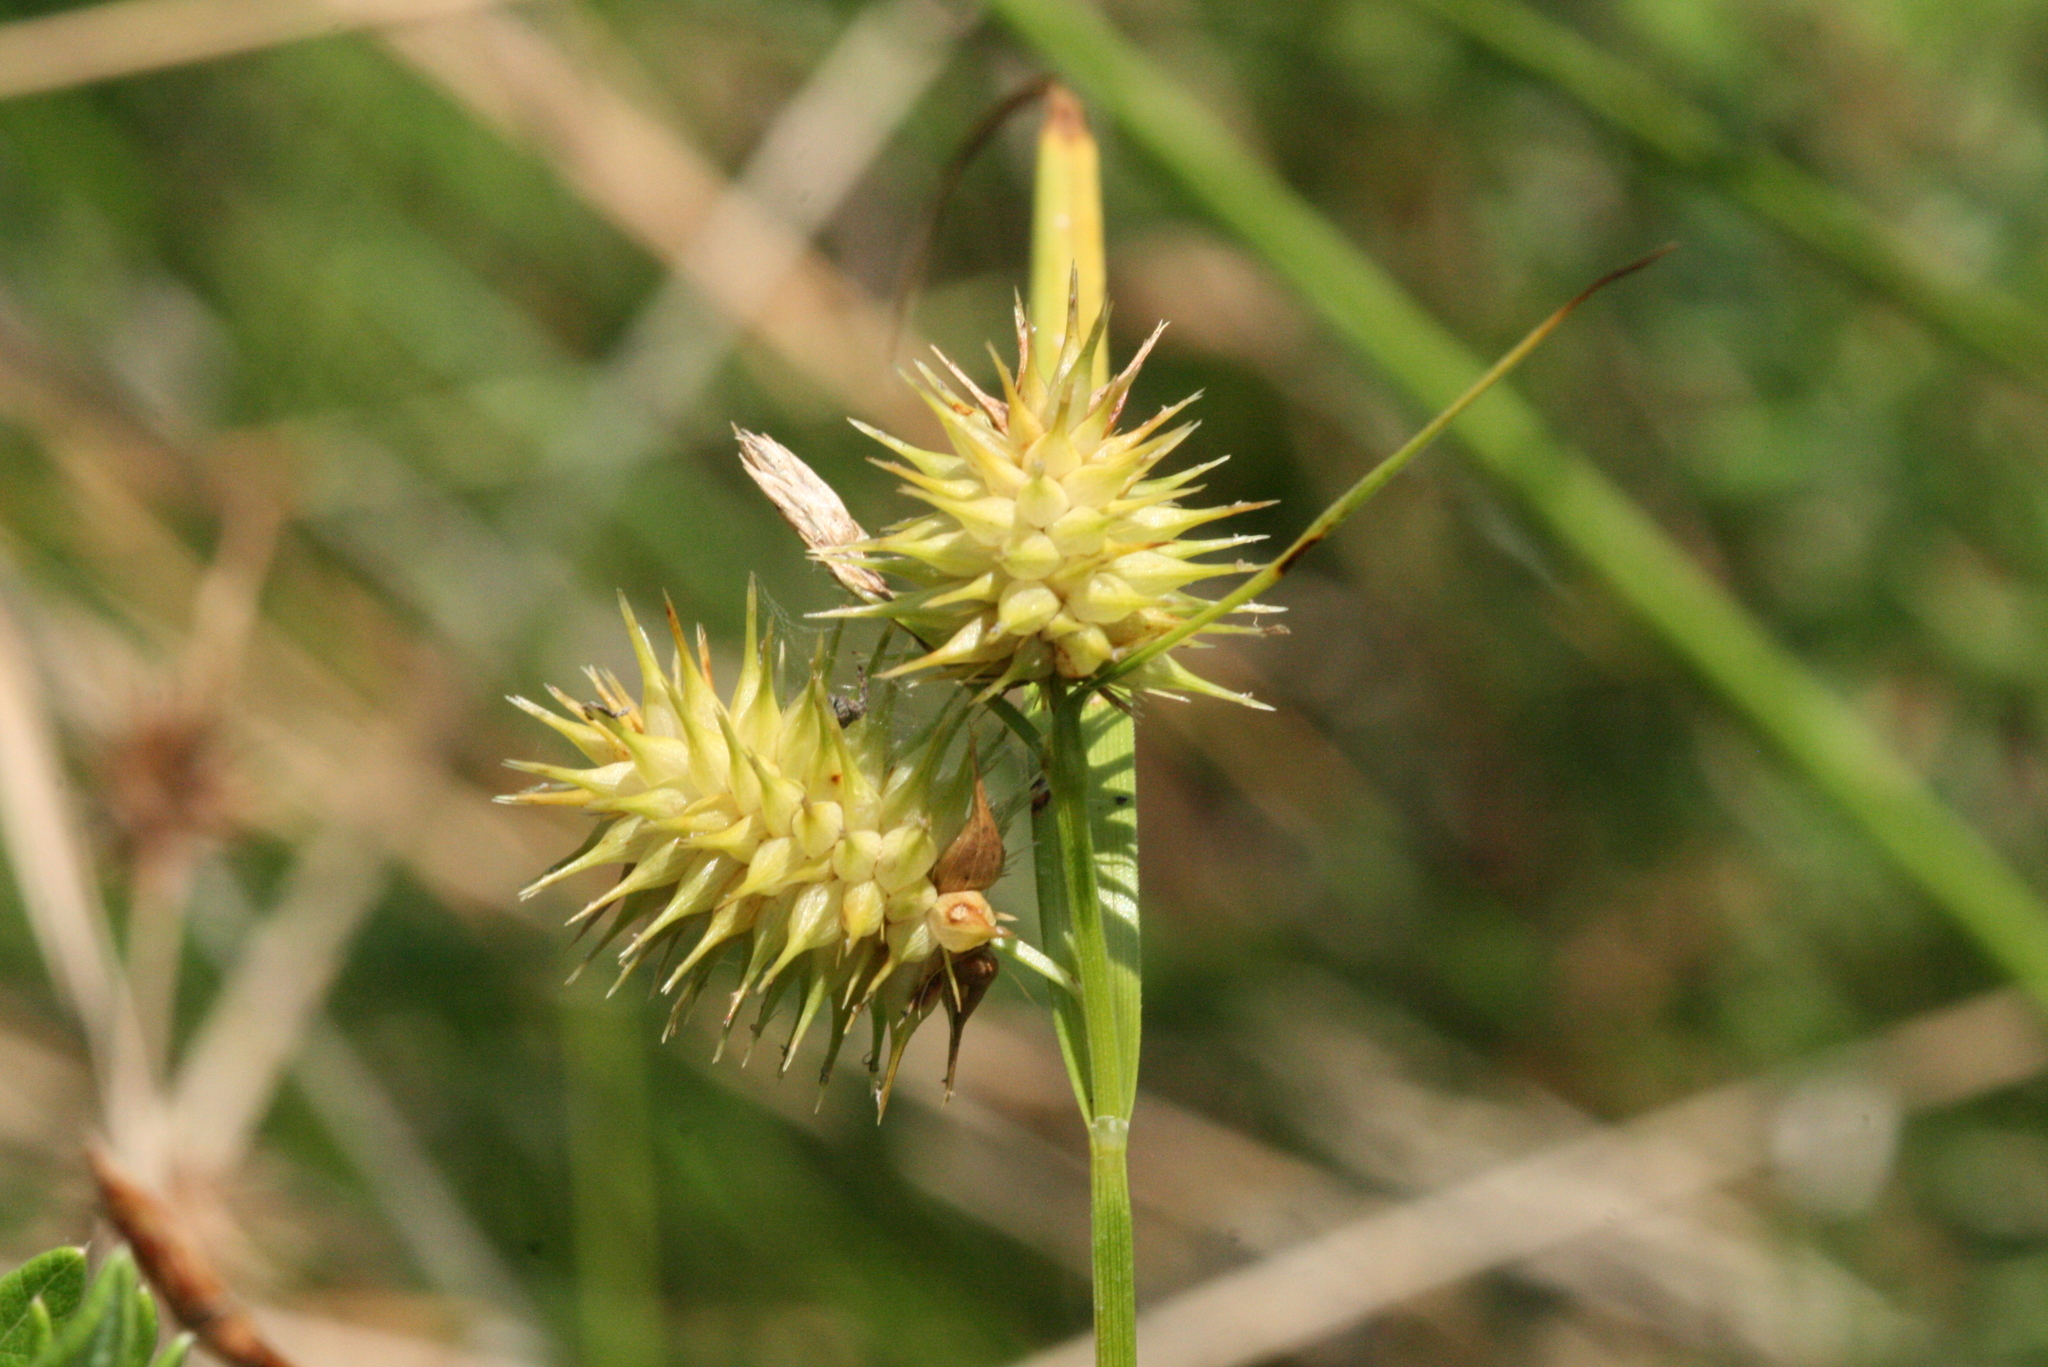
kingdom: Plantae
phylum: Tracheophyta
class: Liliopsida
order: Poales
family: Cyperaceae
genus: Carex
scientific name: Carex hystericina
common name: Bottlebrush sedge
